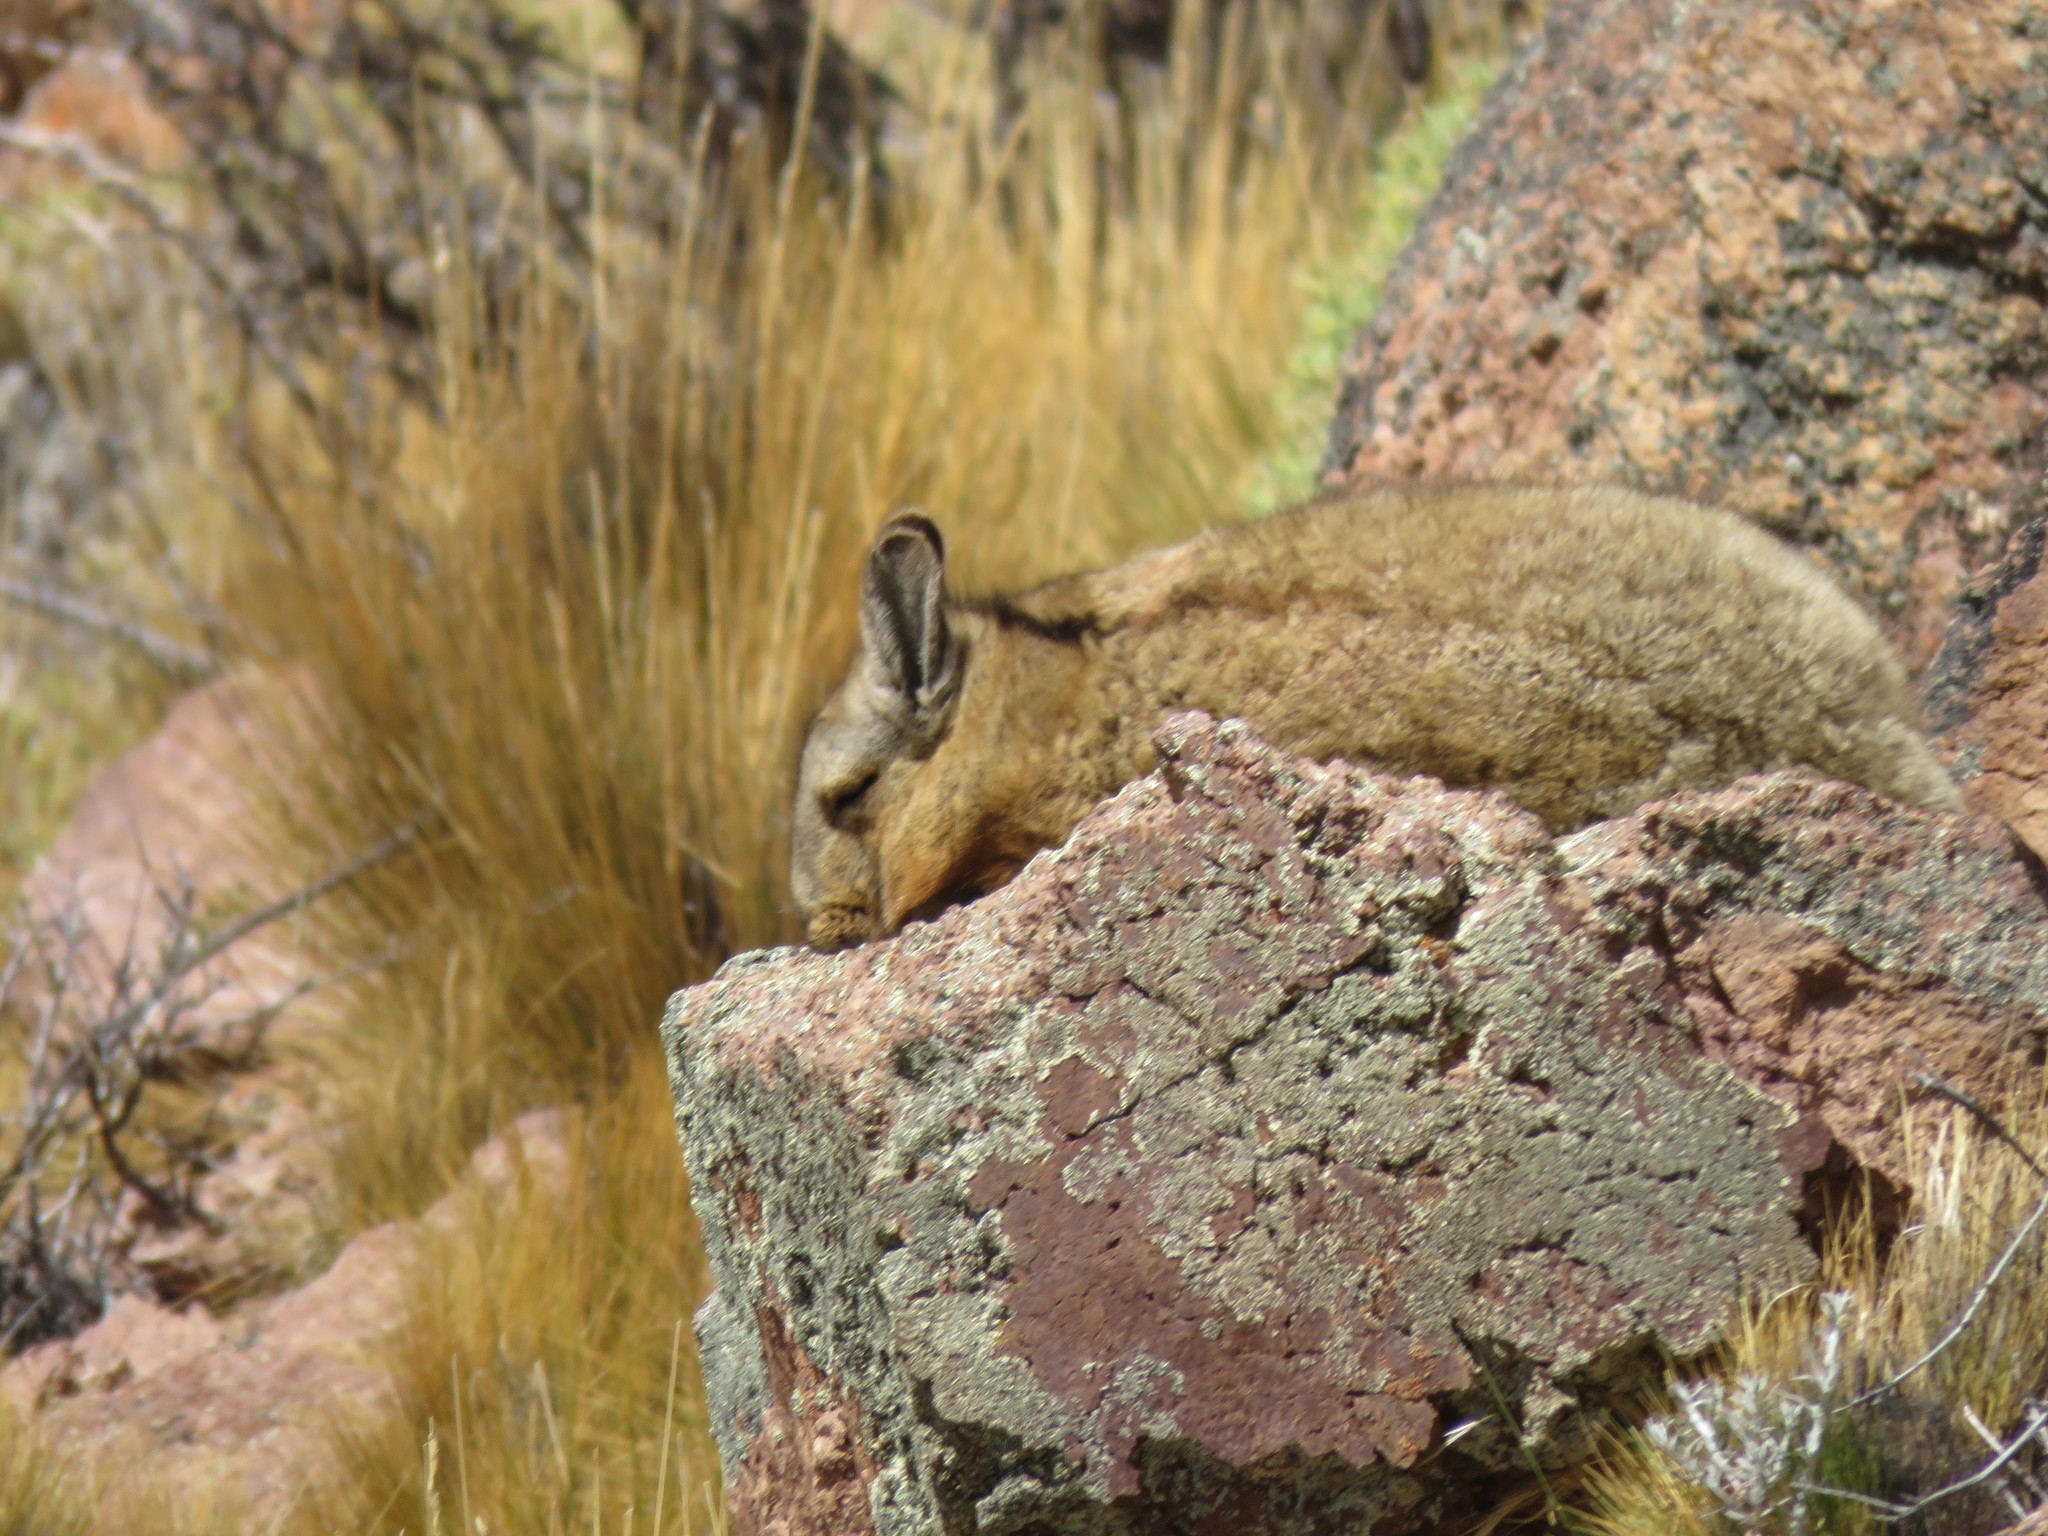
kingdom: Animalia
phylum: Chordata
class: Mammalia
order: Rodentia
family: Chinchillidae
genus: Lagidium
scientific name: Lagidium wolffsohni
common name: Wolffsohn's viscacha
